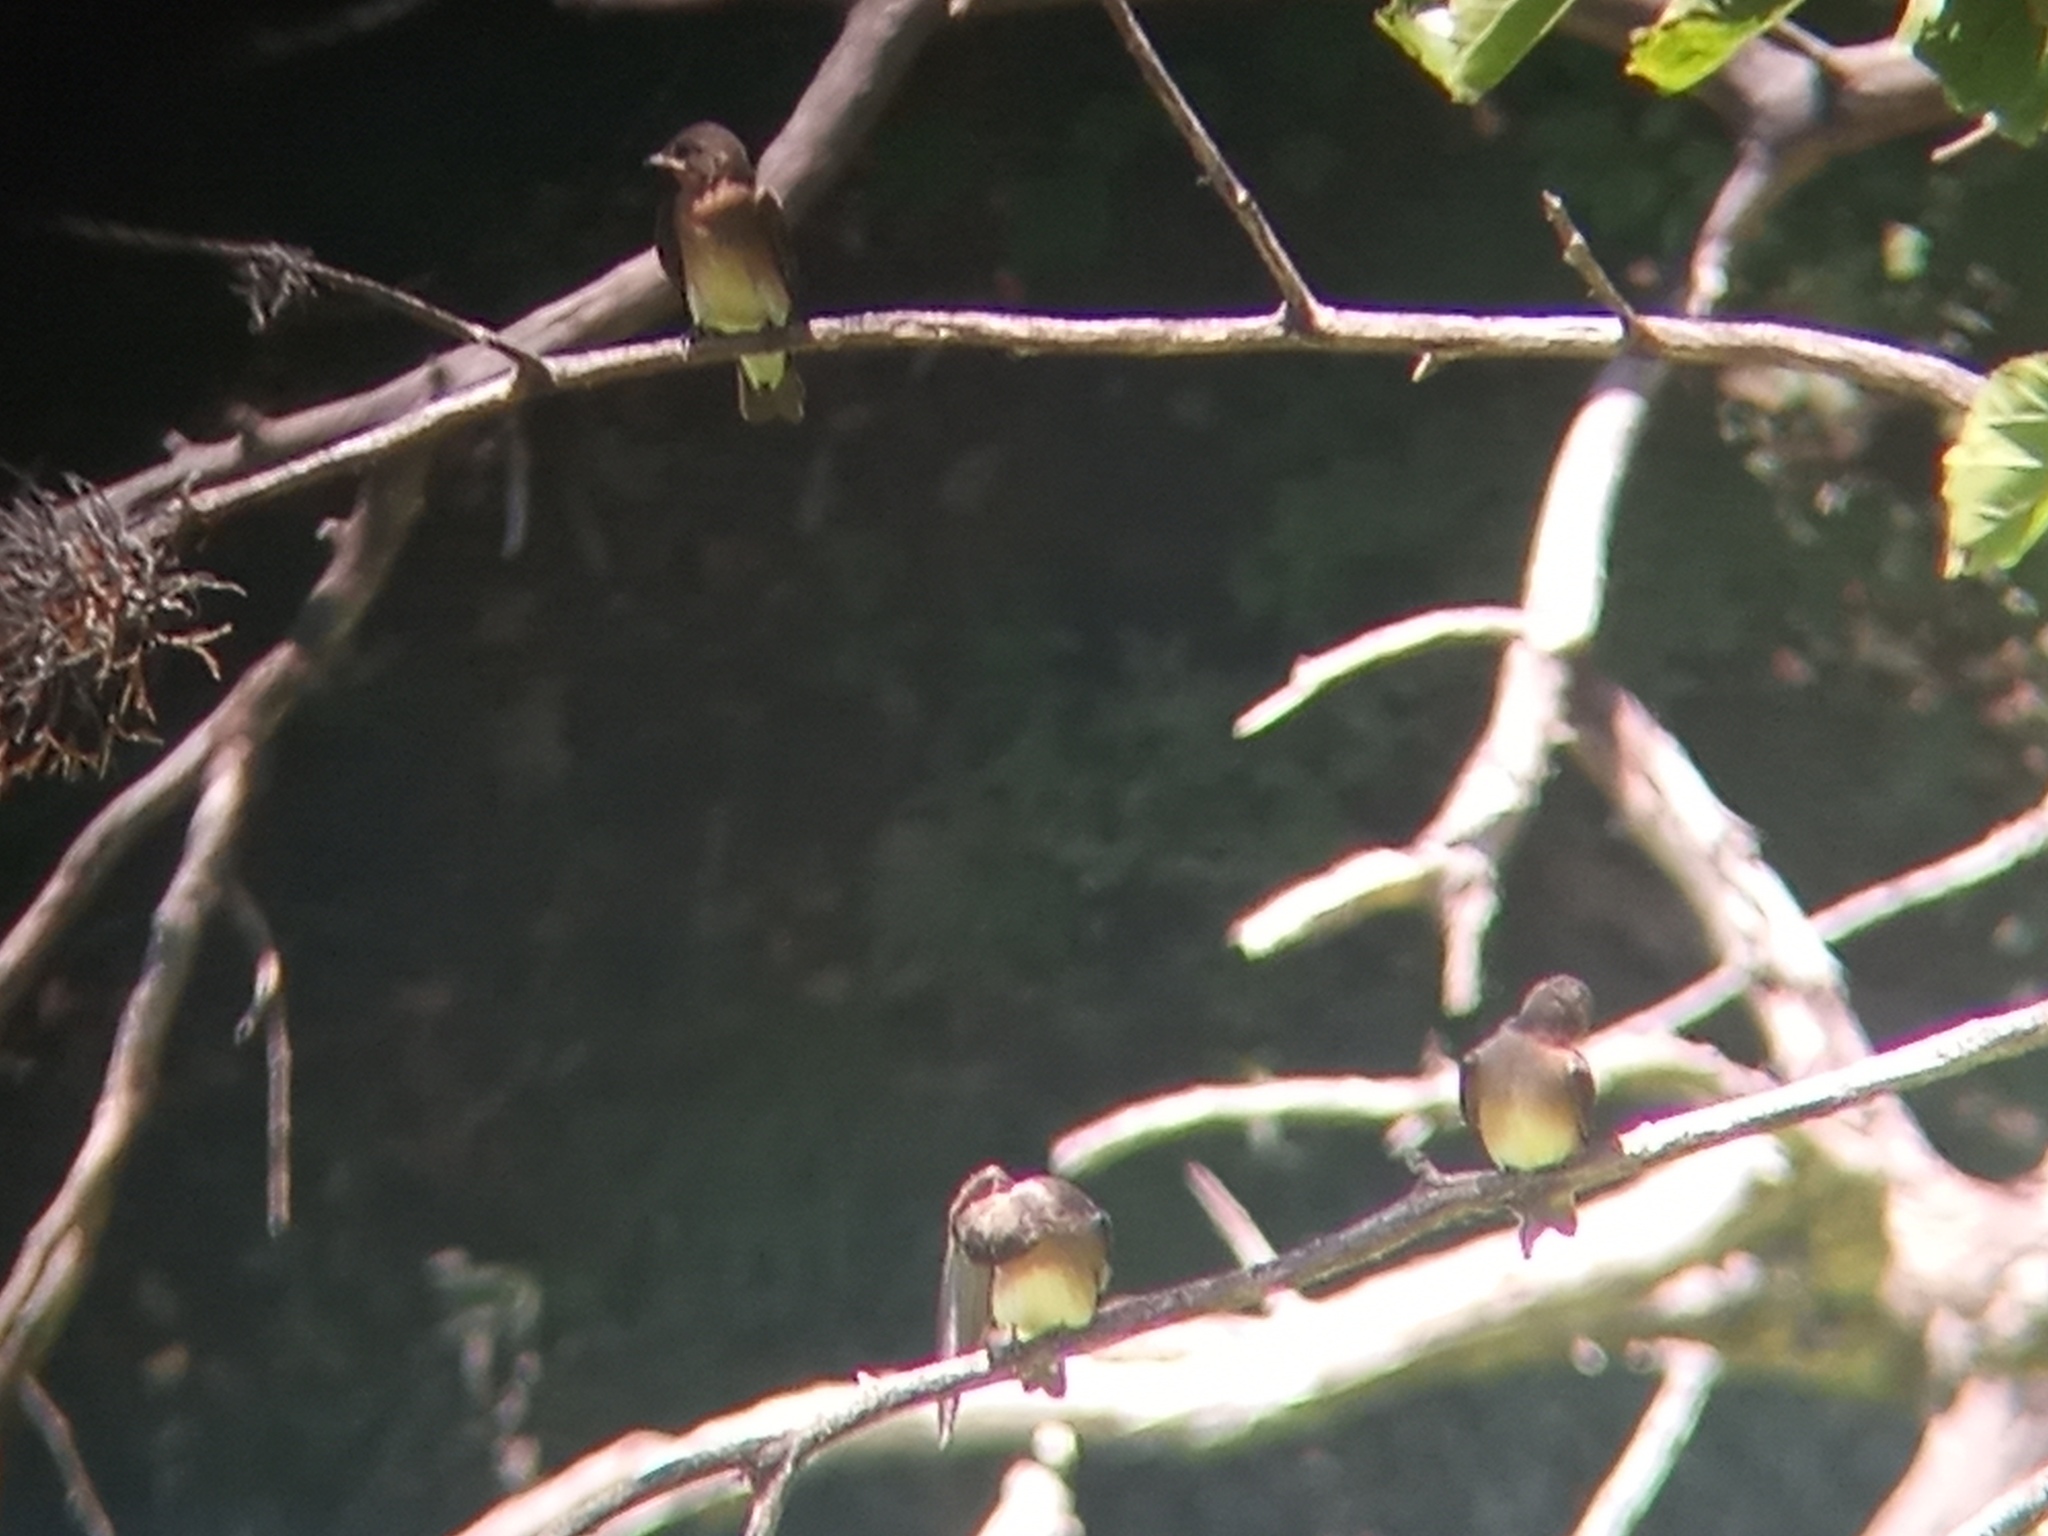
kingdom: Animalia
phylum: Chordata
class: Aves
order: Passeriformes
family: Hirundinidae
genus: Stelgidopteryx
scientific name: Stelgidopteryx ruficollis
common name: Southern rough-winged swallow
